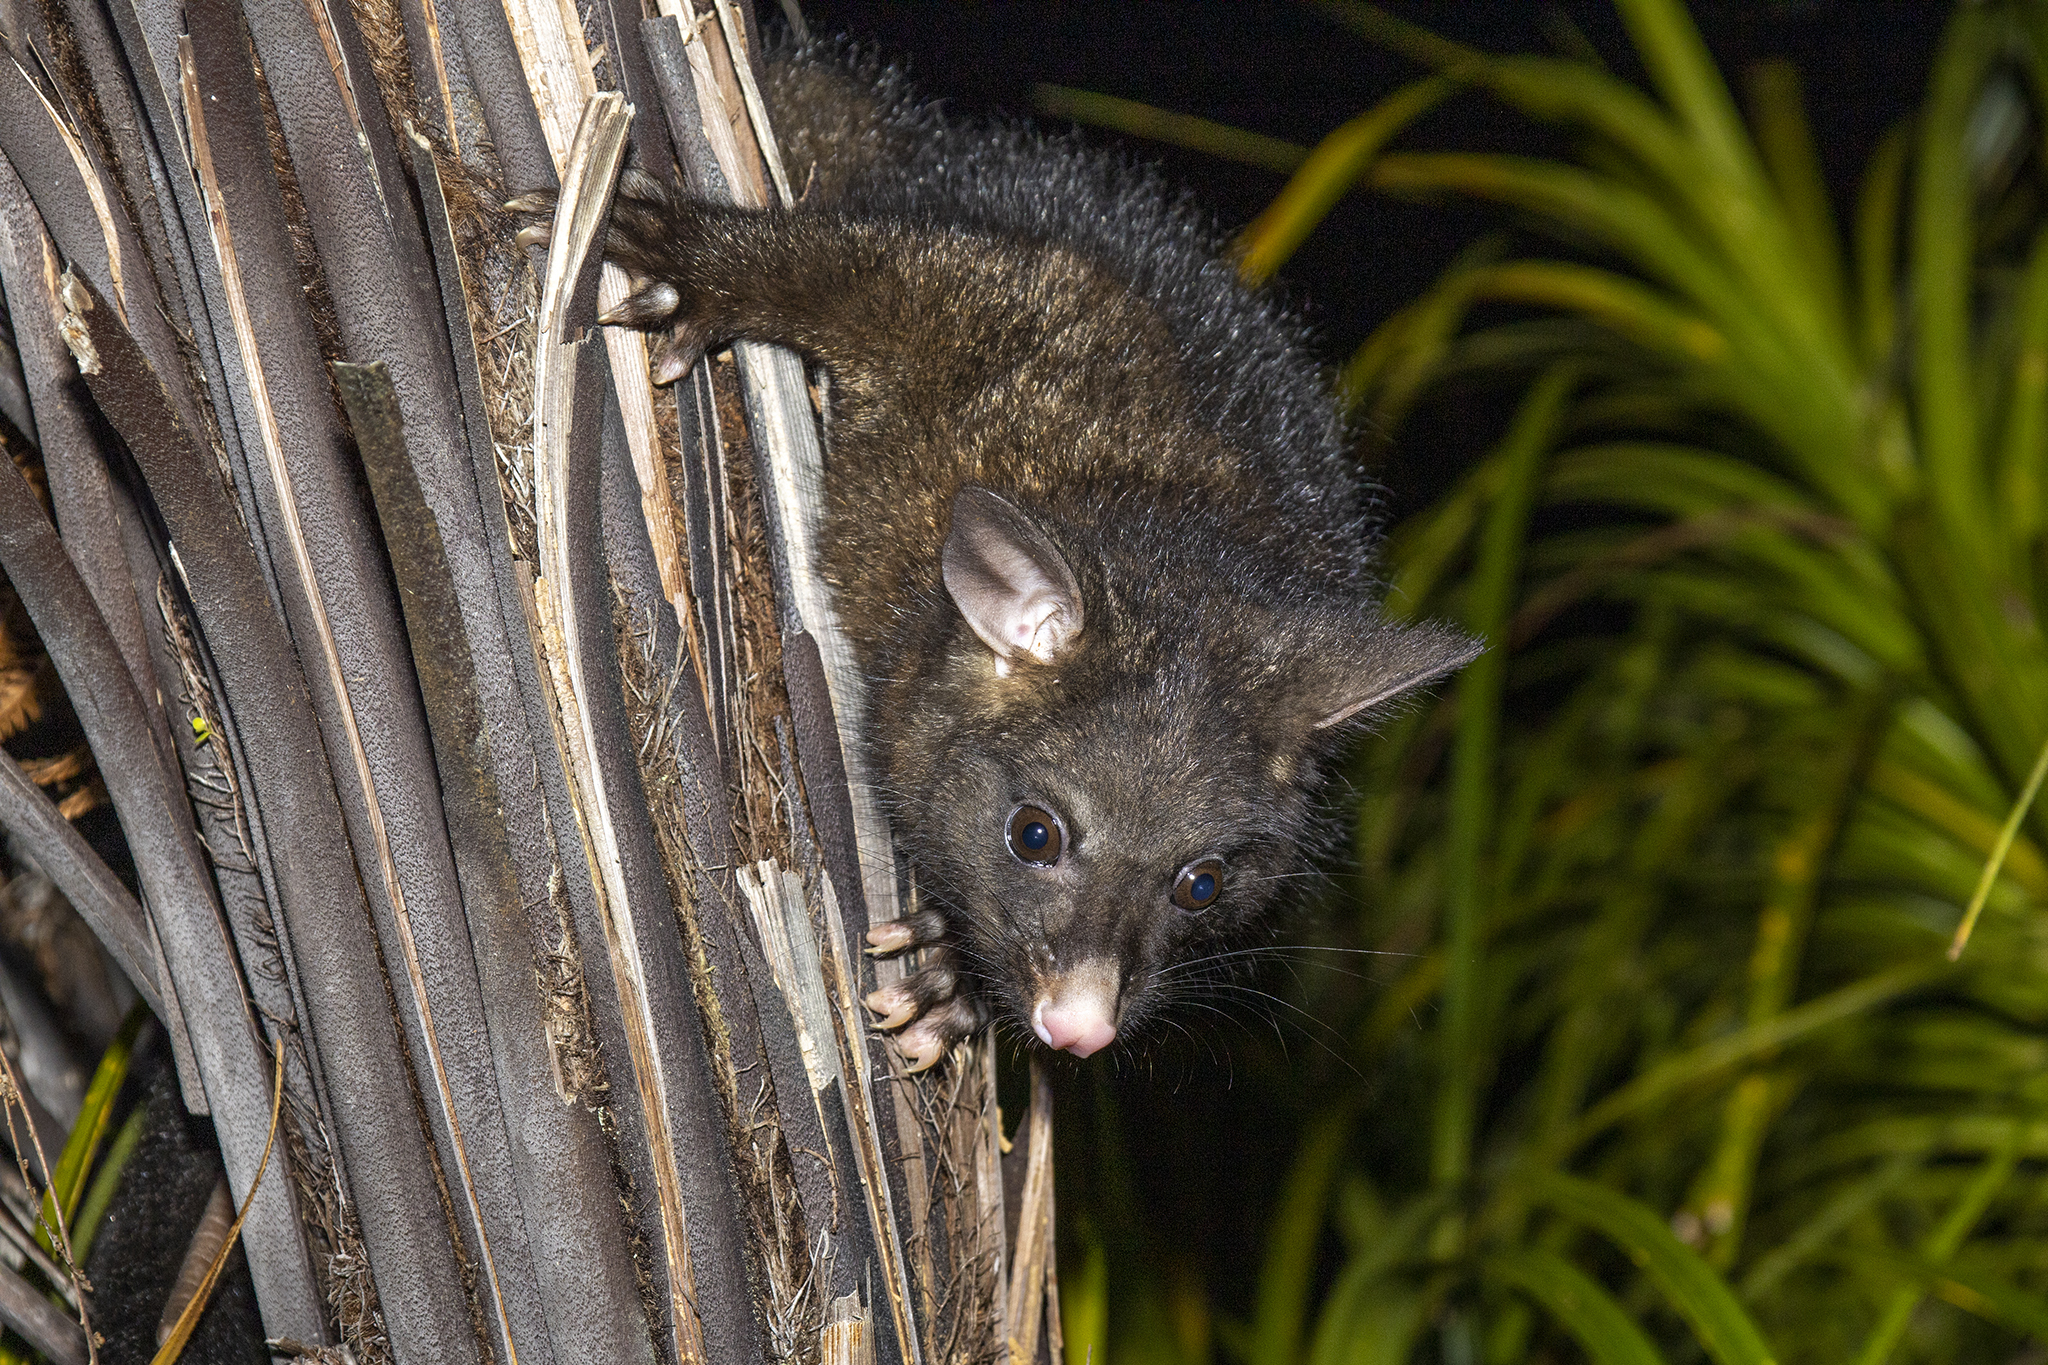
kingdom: Animalia
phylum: Chordata
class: Mammalia
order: Diprotodontia
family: Phalangeridae
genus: Trichosurus
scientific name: Trichosurus vulpecula
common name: Common brushtail
